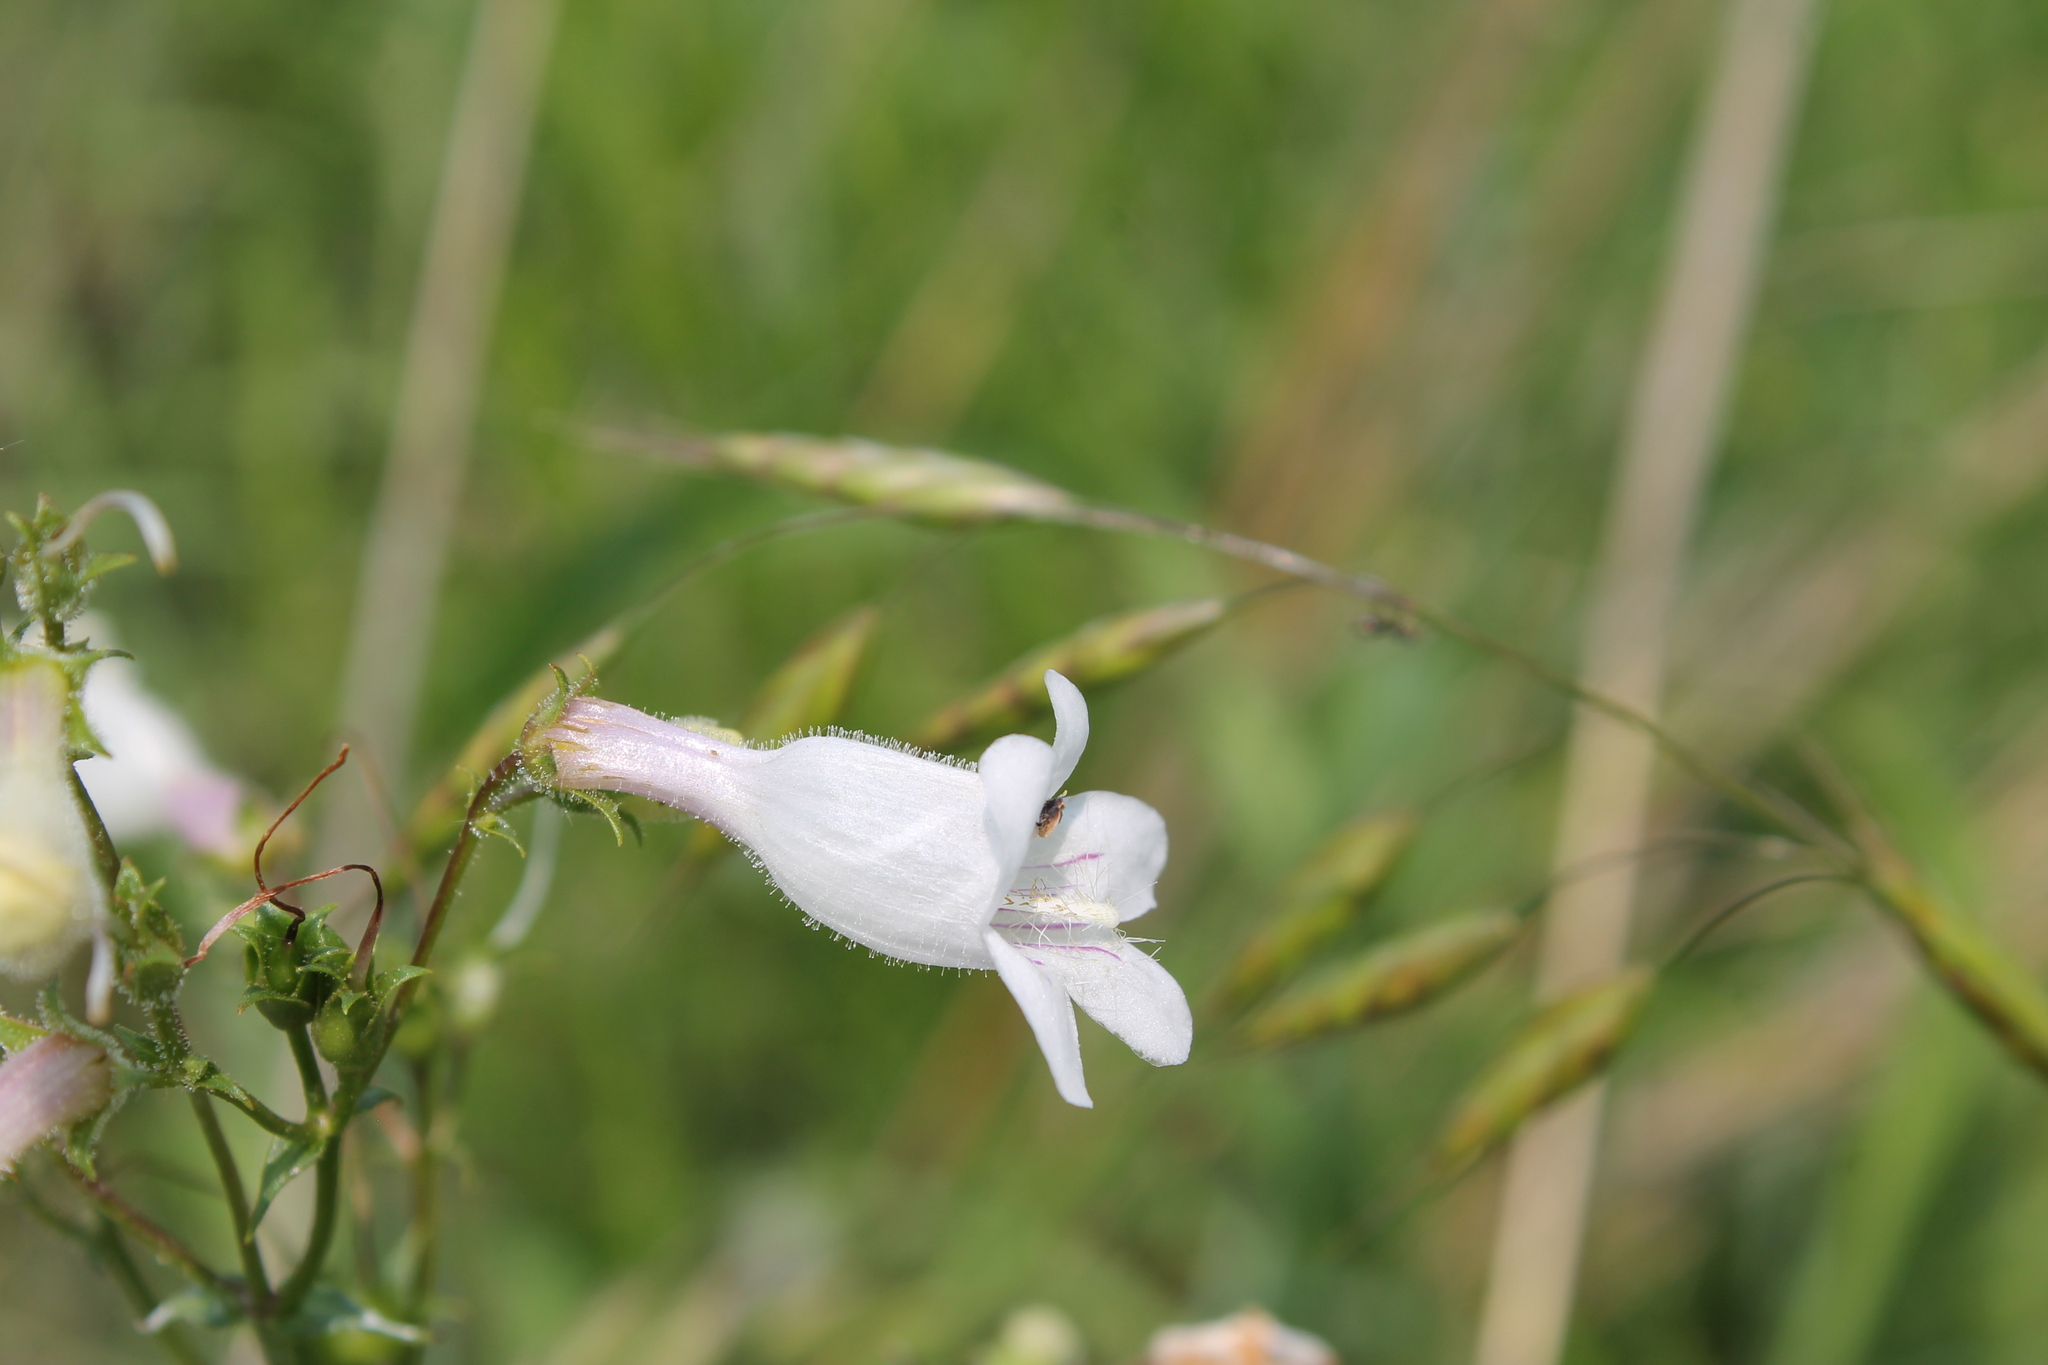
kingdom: Plantae
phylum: Tracheophyta
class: Magnoliopsida
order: Lamiales
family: Plantaginaceae
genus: Penstemon
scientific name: Penstemon digitalis
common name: Foxglove beardtongue
